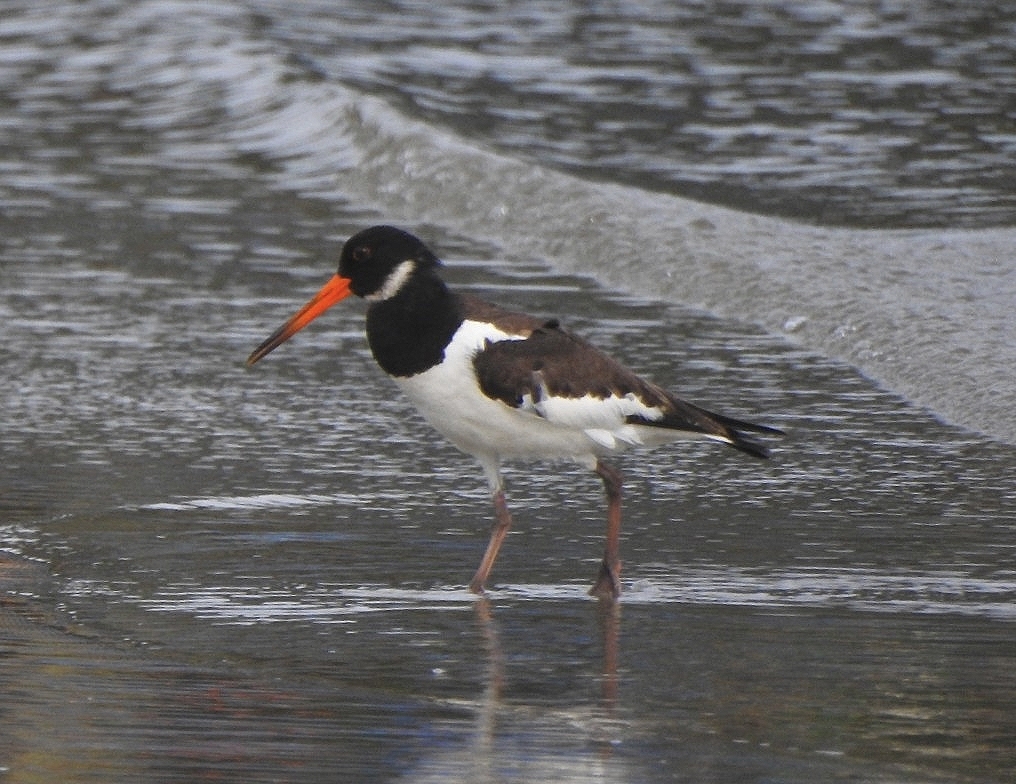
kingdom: Animalia
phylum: Chordata
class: Aves
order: Charadriiformes
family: Haematopodidae
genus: Haematopus
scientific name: Haematopus ostralegus
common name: Eurasian oystercatcher
